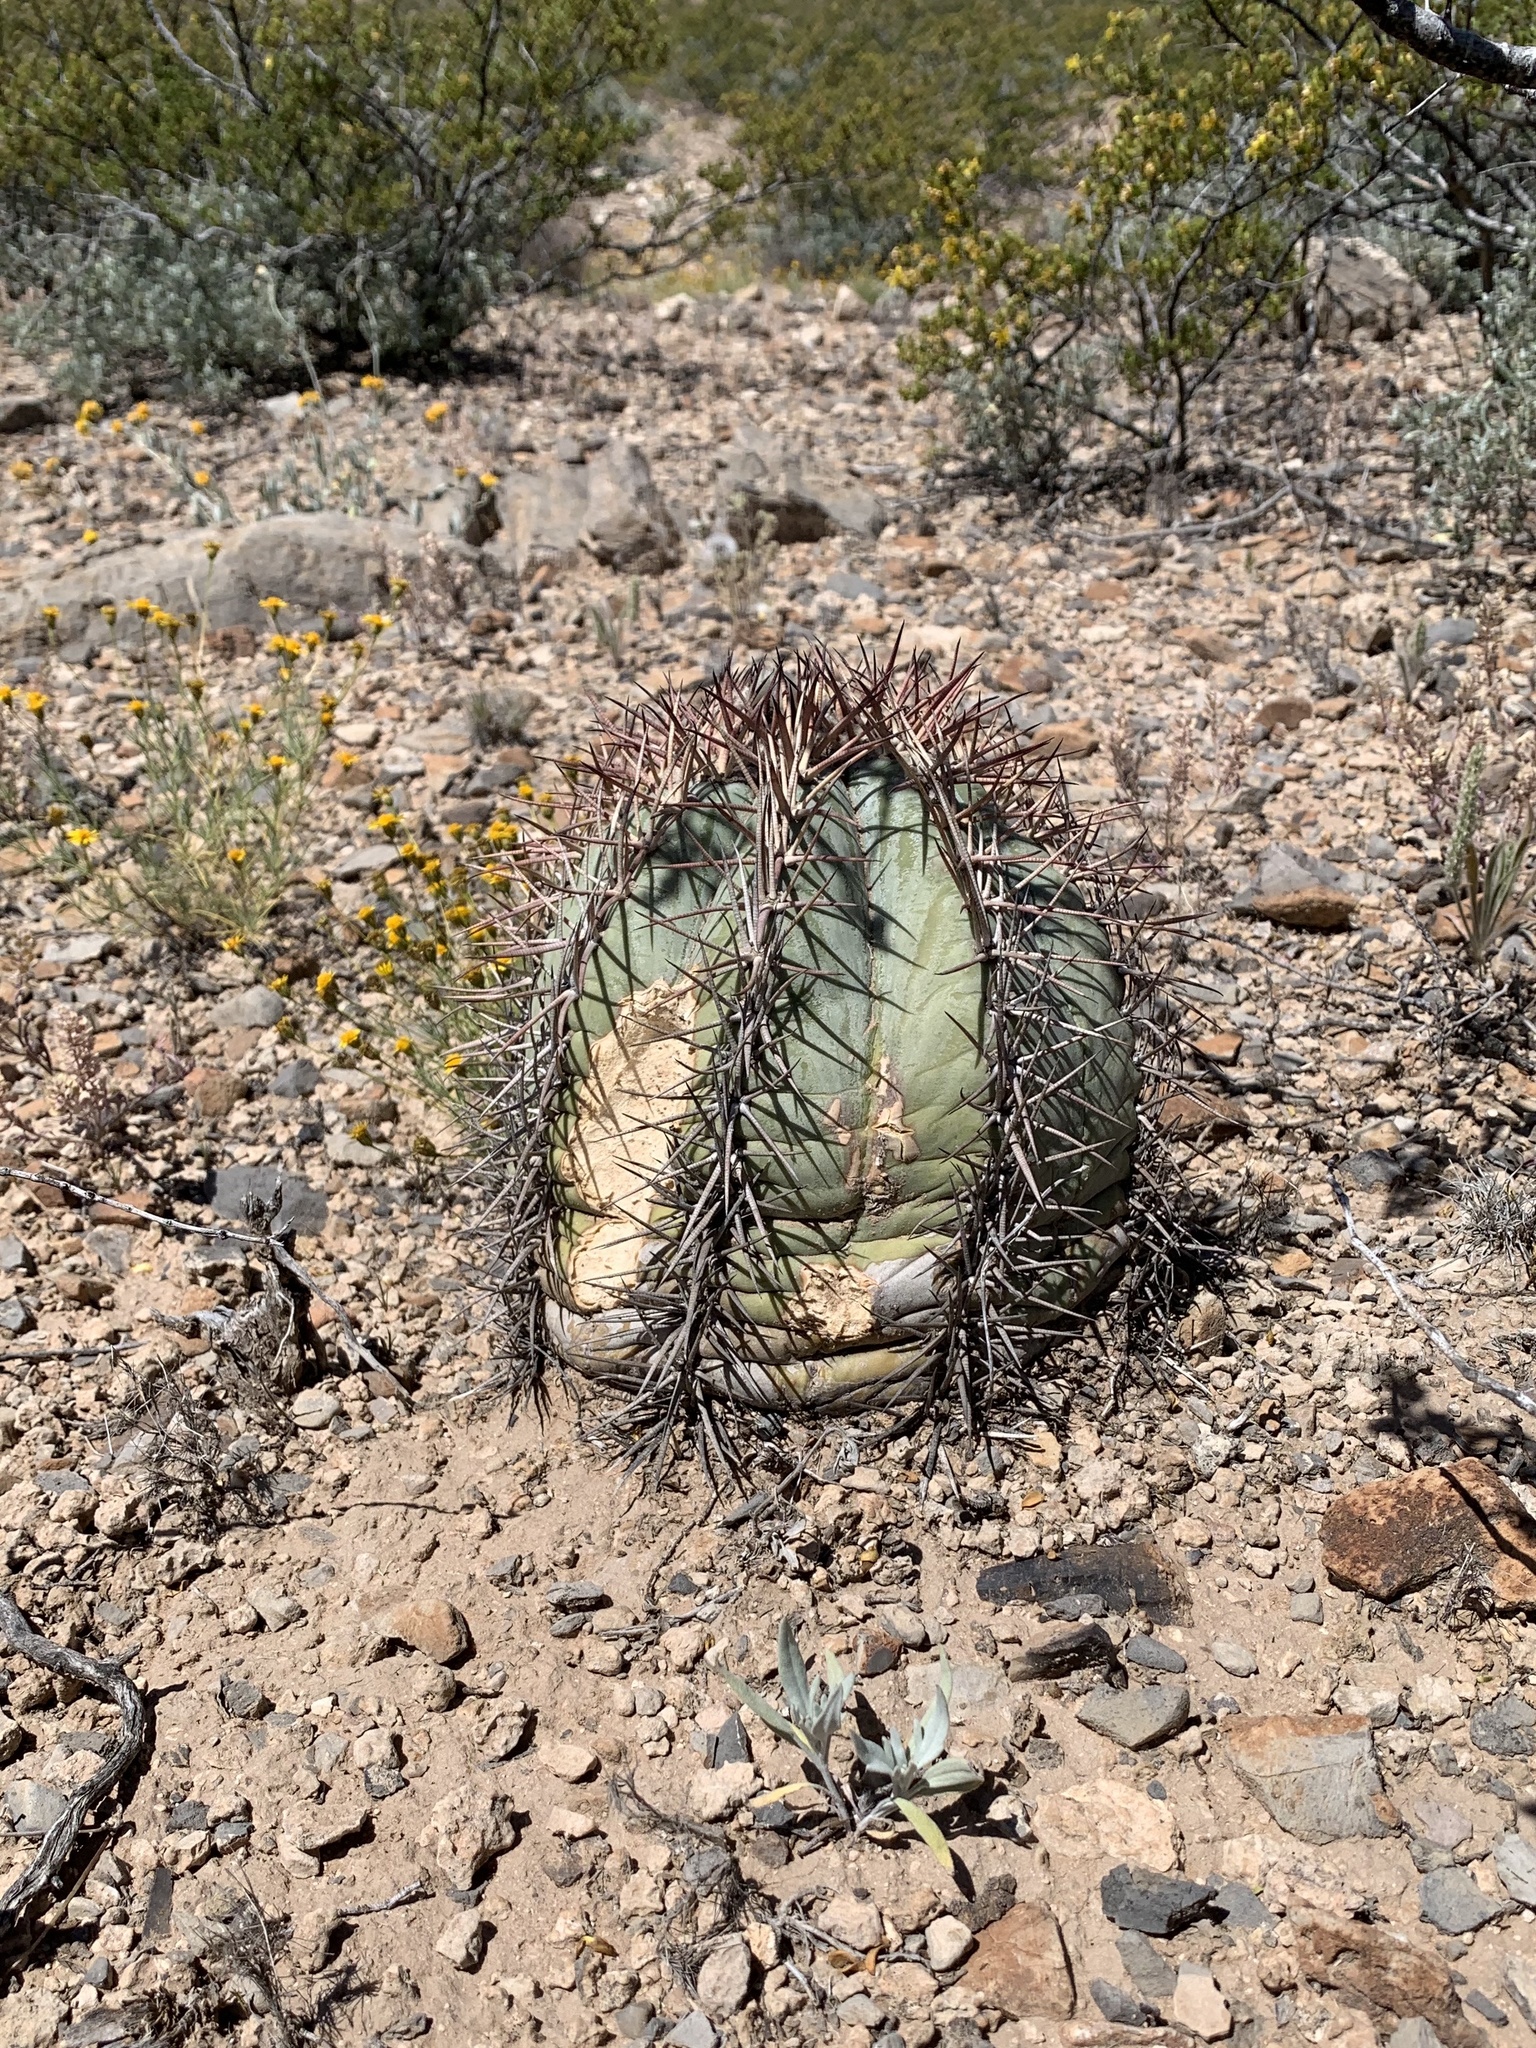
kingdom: Plantae
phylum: Tracheophyta
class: Magnoliopsida
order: Caryophyllales
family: Cactaceae
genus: Echinocactus
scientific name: Echinocactus horizonthalonius
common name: Devilshead
